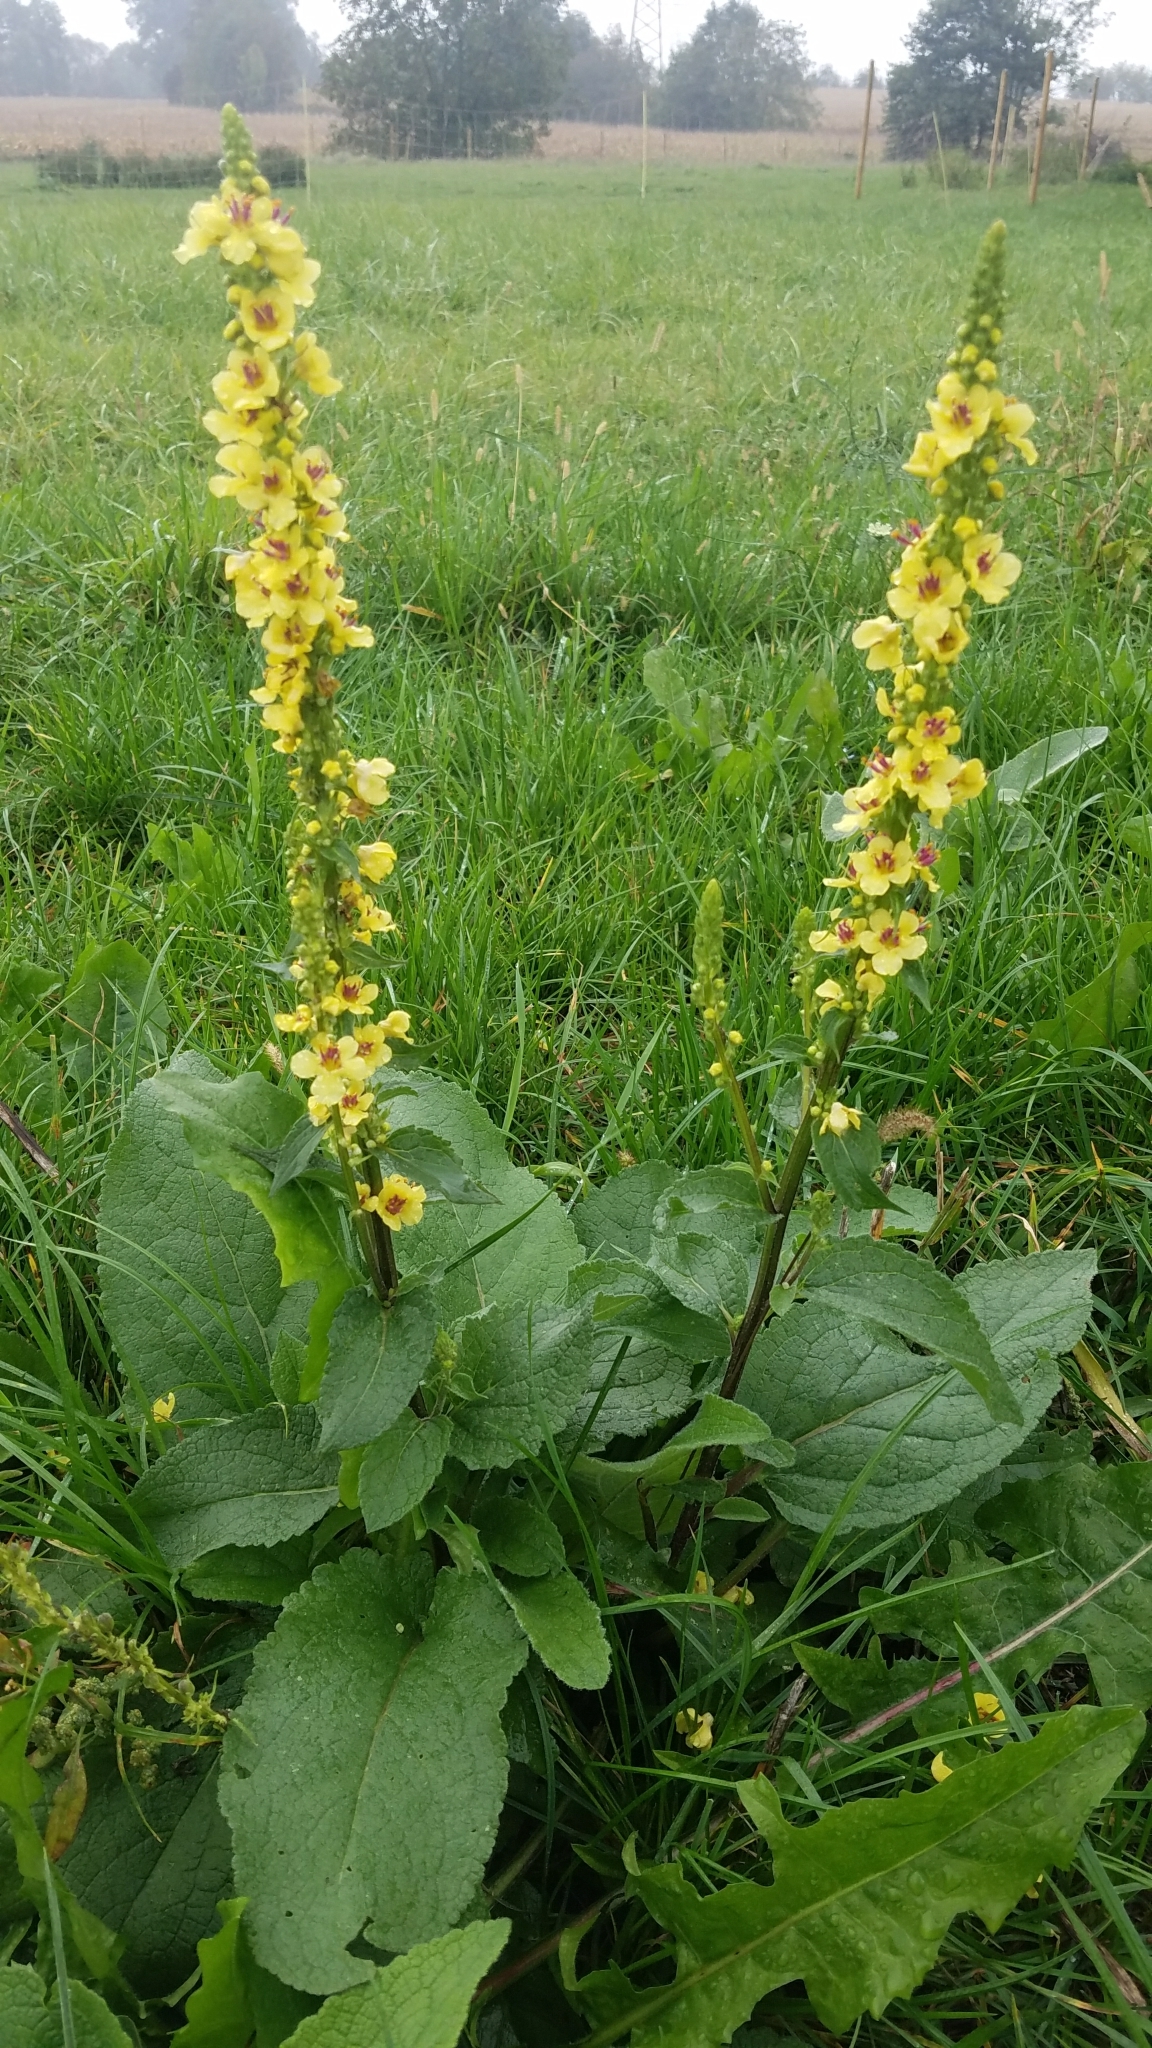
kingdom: Plantae
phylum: Tracheophyta
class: Magnoliopsida
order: Lamiales
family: Scrophulariaceae
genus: Verbascum
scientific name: Verbascum nigrum
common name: Dark mullein
